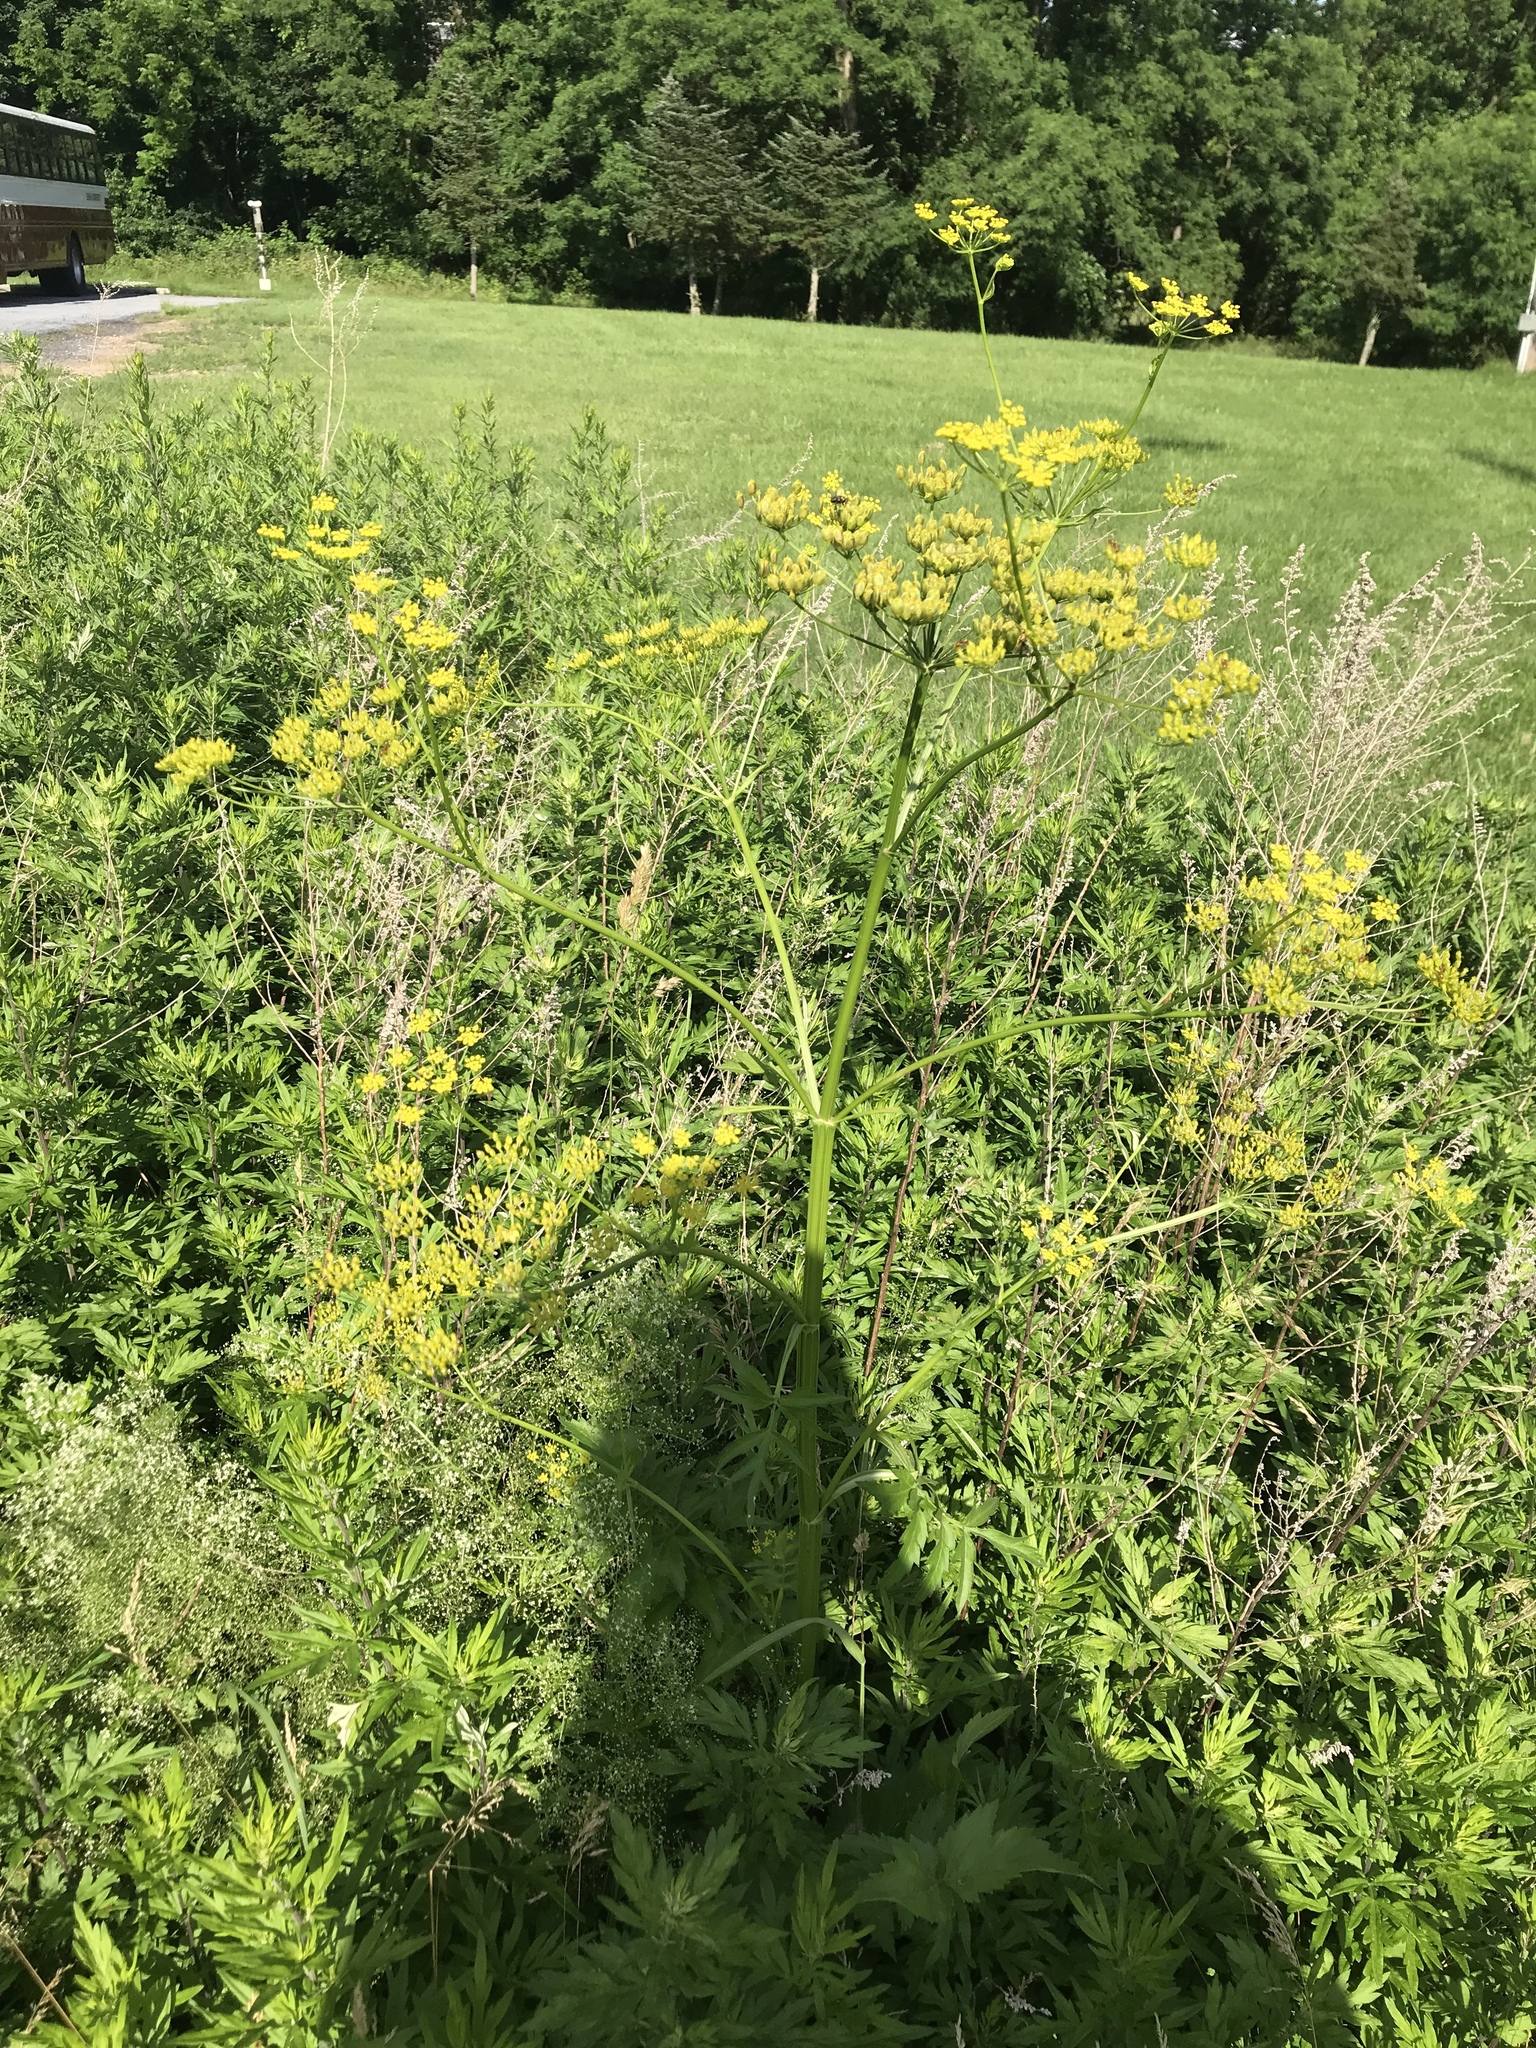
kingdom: Plantae
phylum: Tracheophyta
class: Magnoliopsida
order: Apiales
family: Apiaceae
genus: Pastinaca
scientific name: Pastinaca sativa
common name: Wild parsnip
